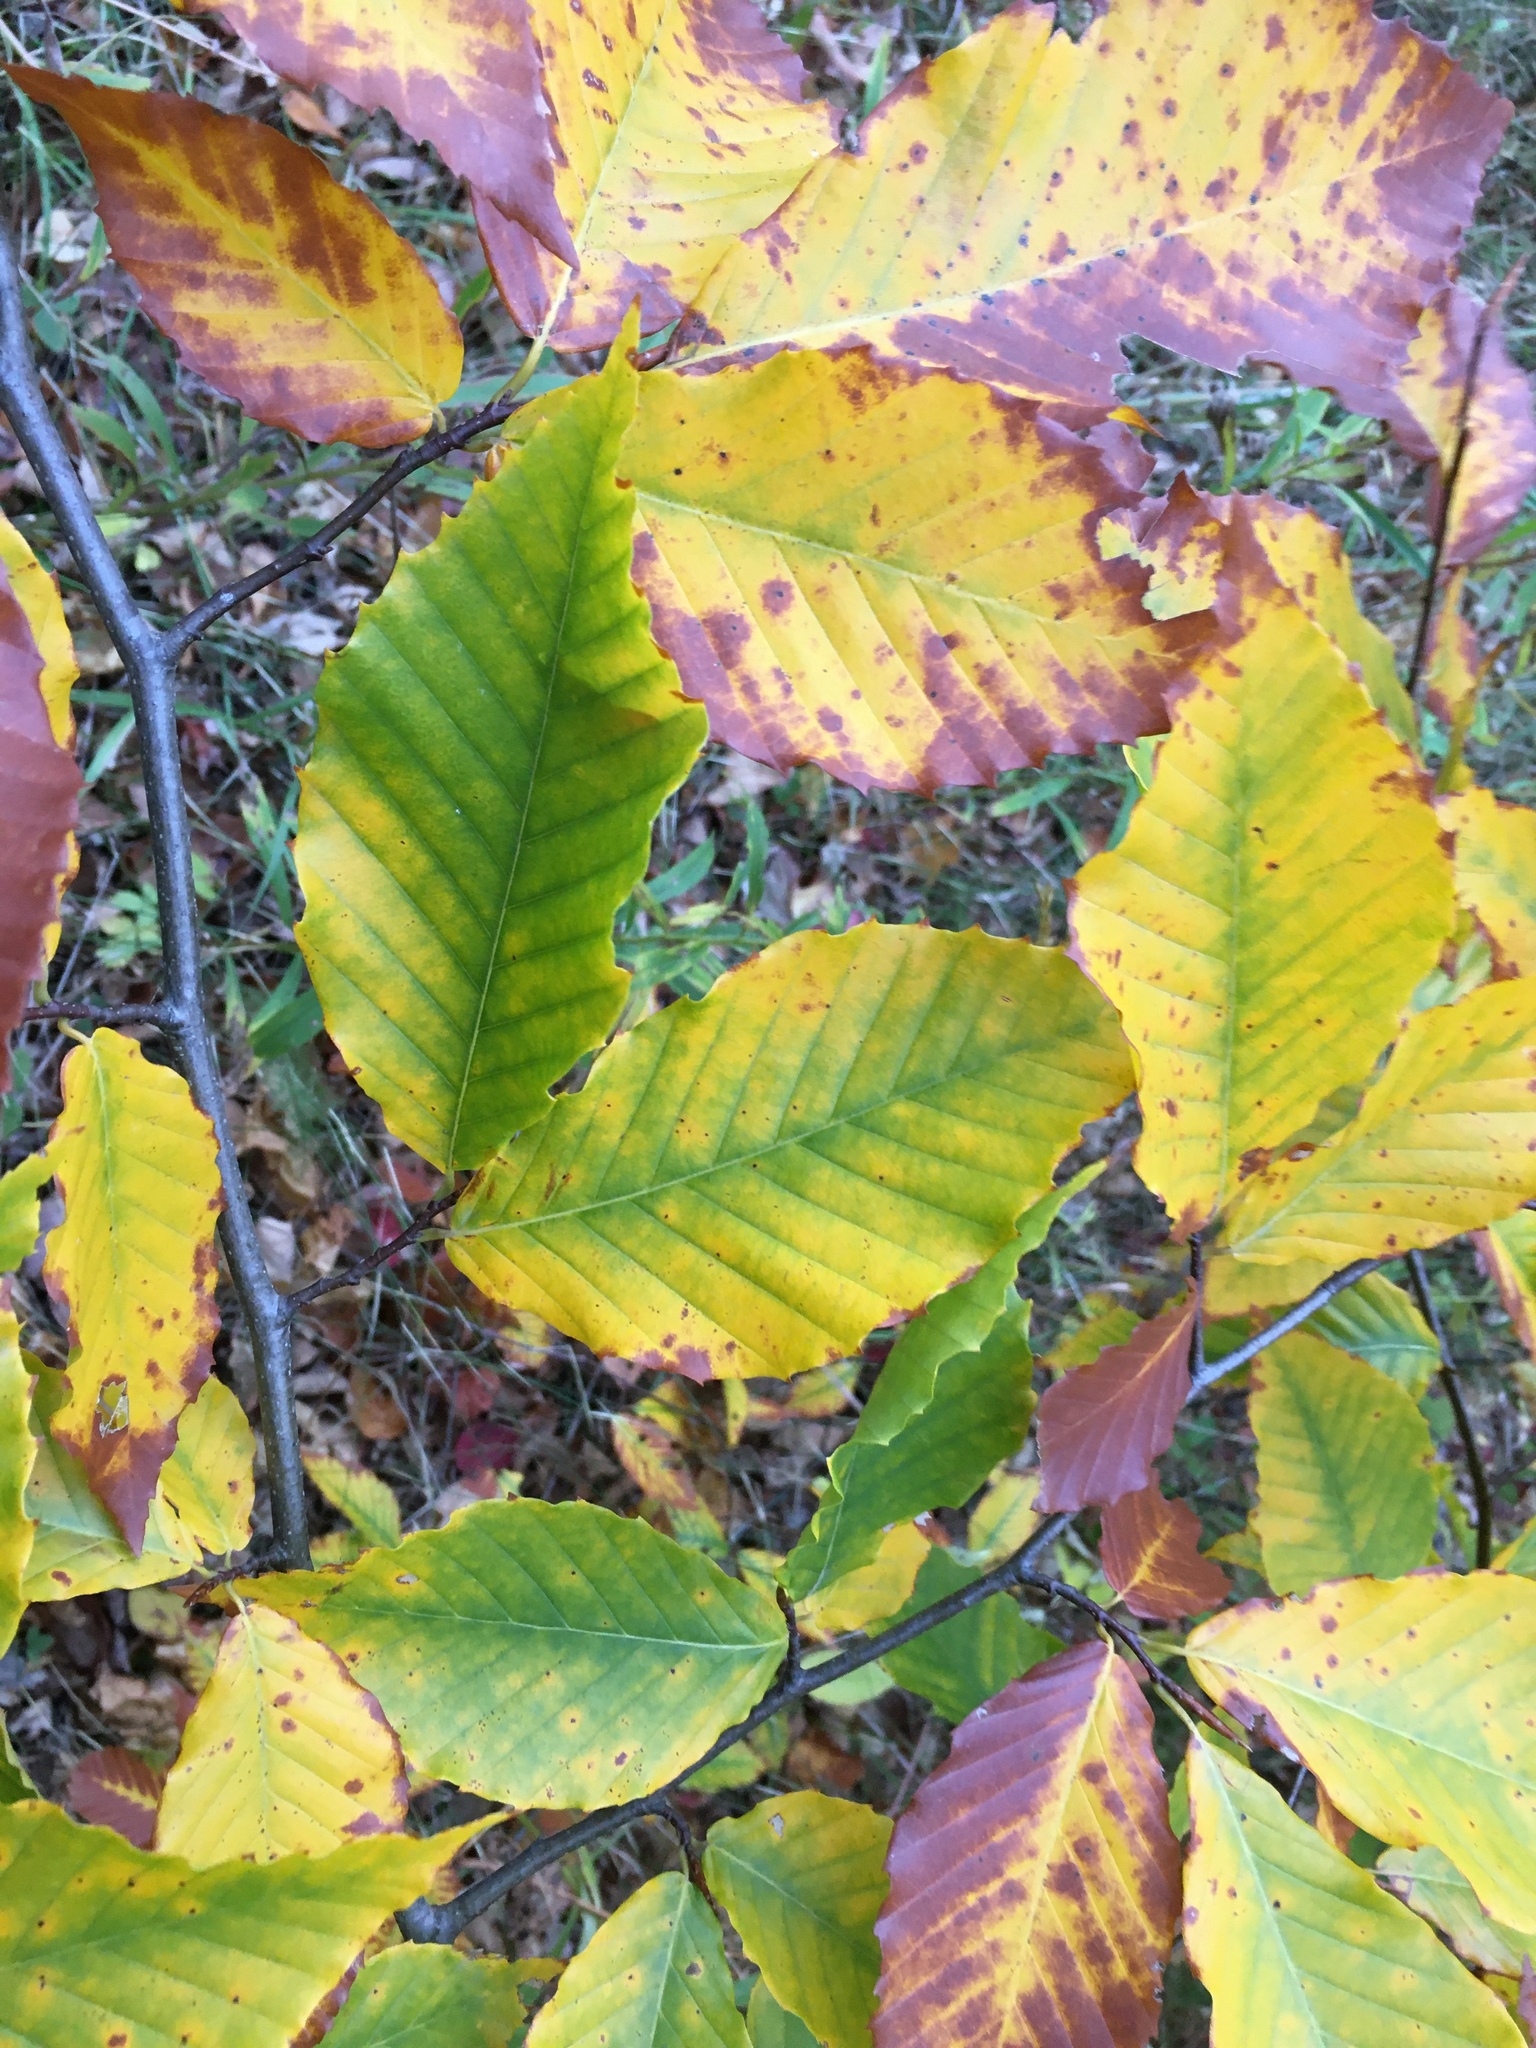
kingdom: Plantae
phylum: Tracheophyta
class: Magnoliopsida
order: Fagales
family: Fagaceae
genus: Fagus
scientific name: Fagus grandifolia
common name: American beech
